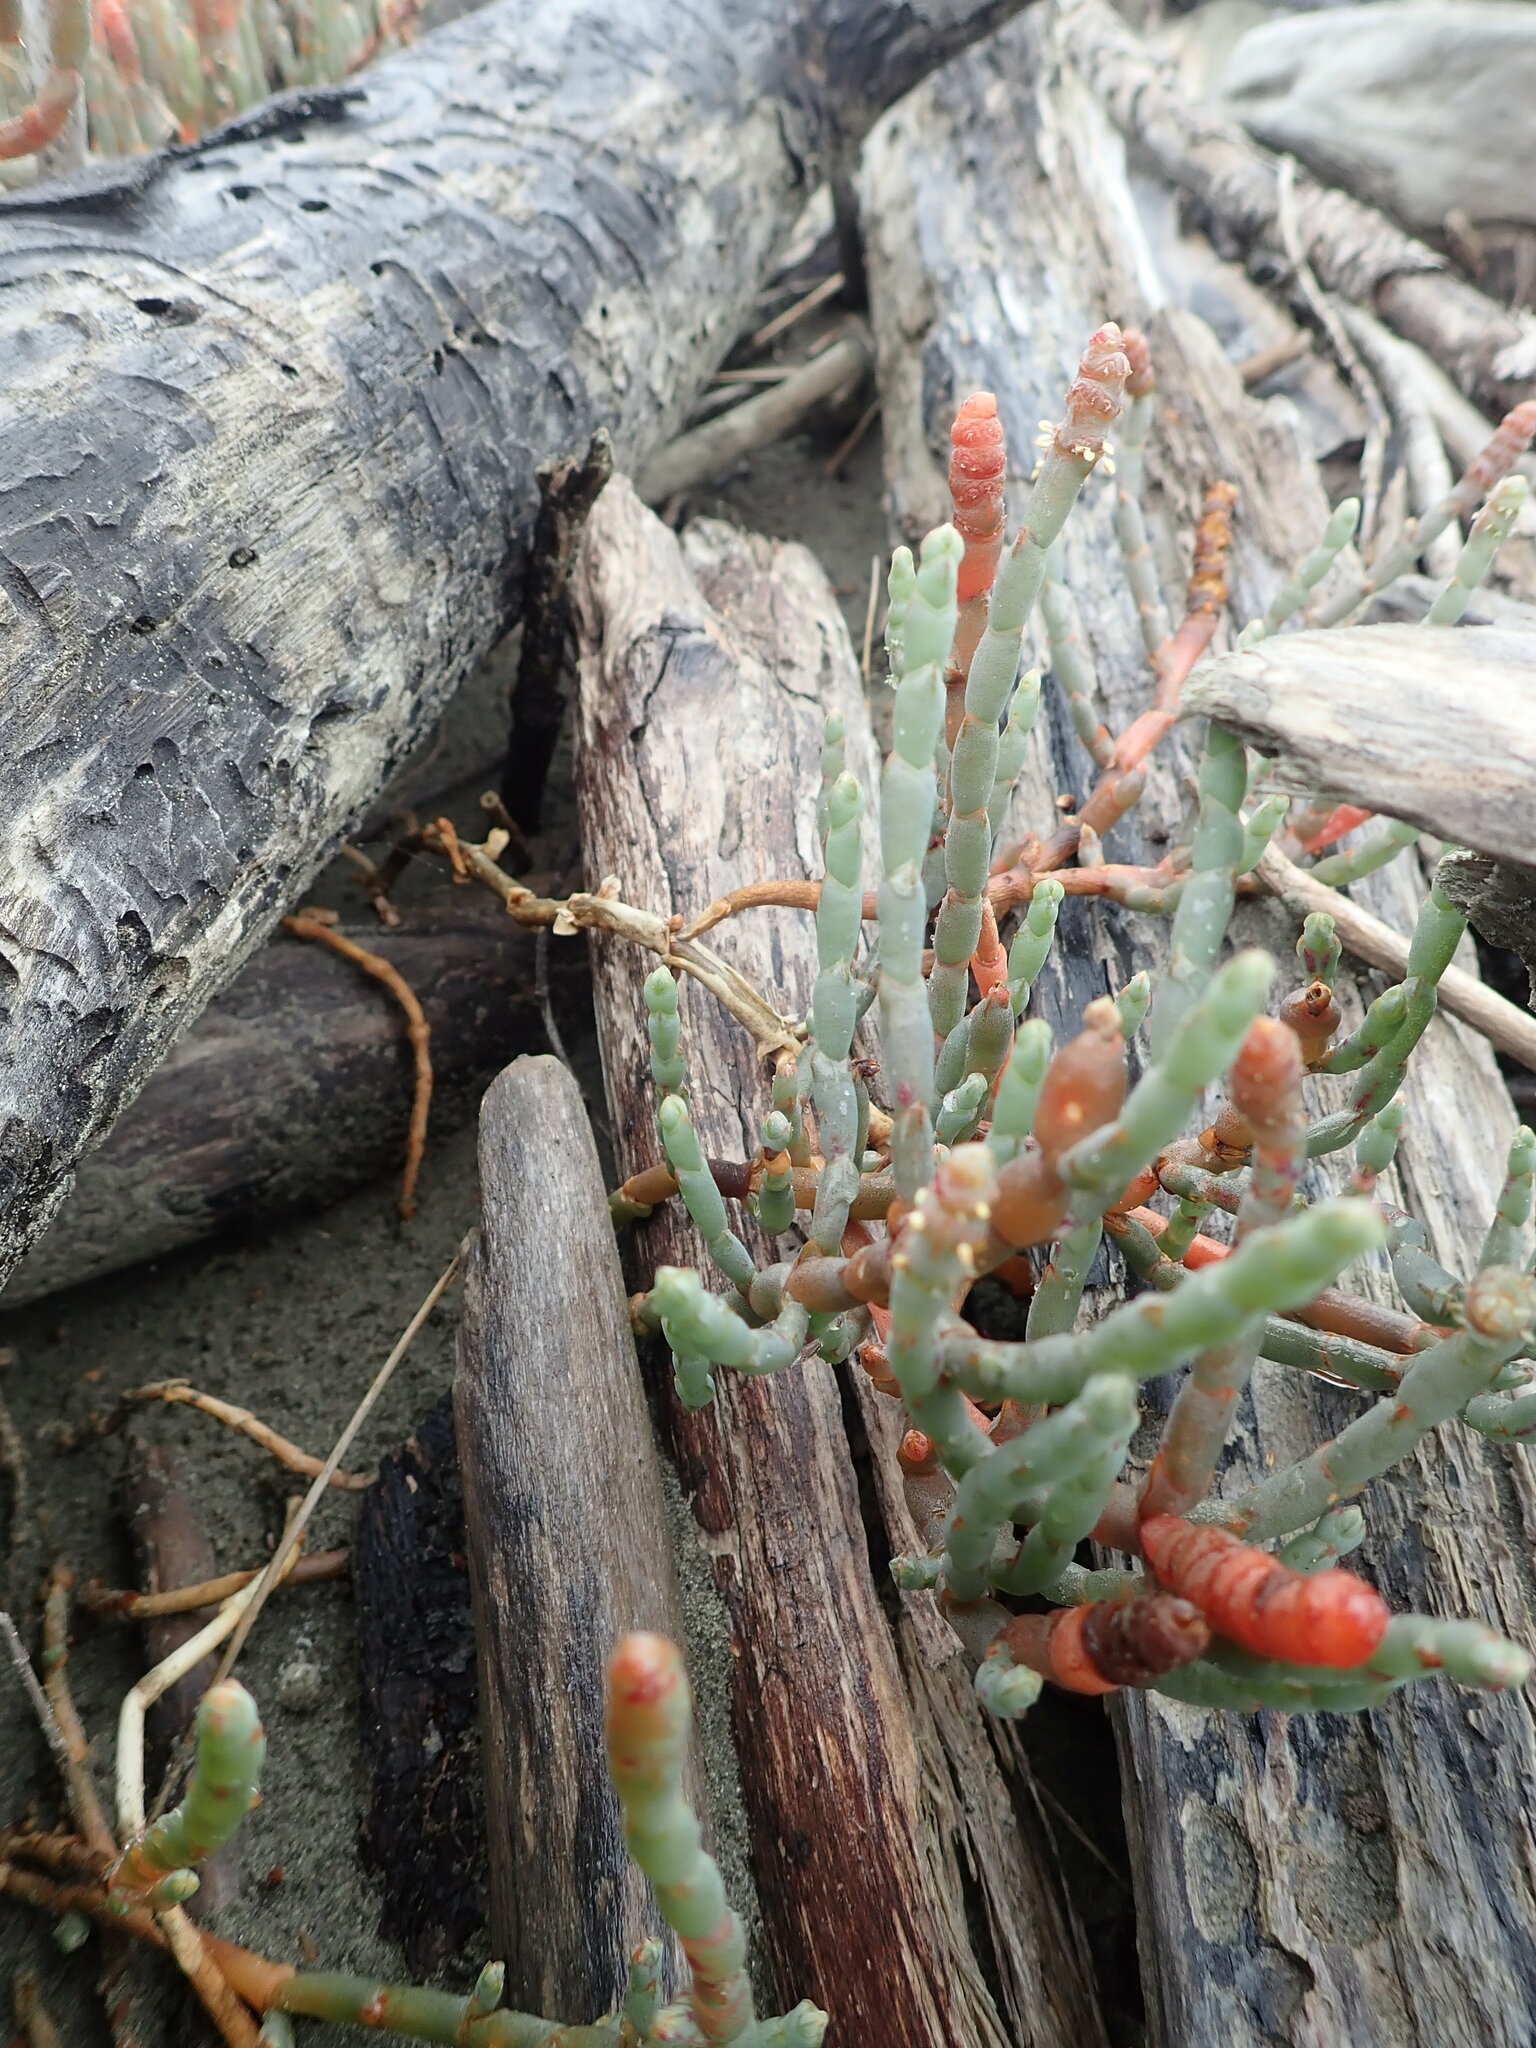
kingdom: Plantae
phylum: Tracheophyta
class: Magnoliopsida
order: Caryophyllales
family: Amaranthaceae
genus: Salicornia
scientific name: Salicornia quinqueflora
